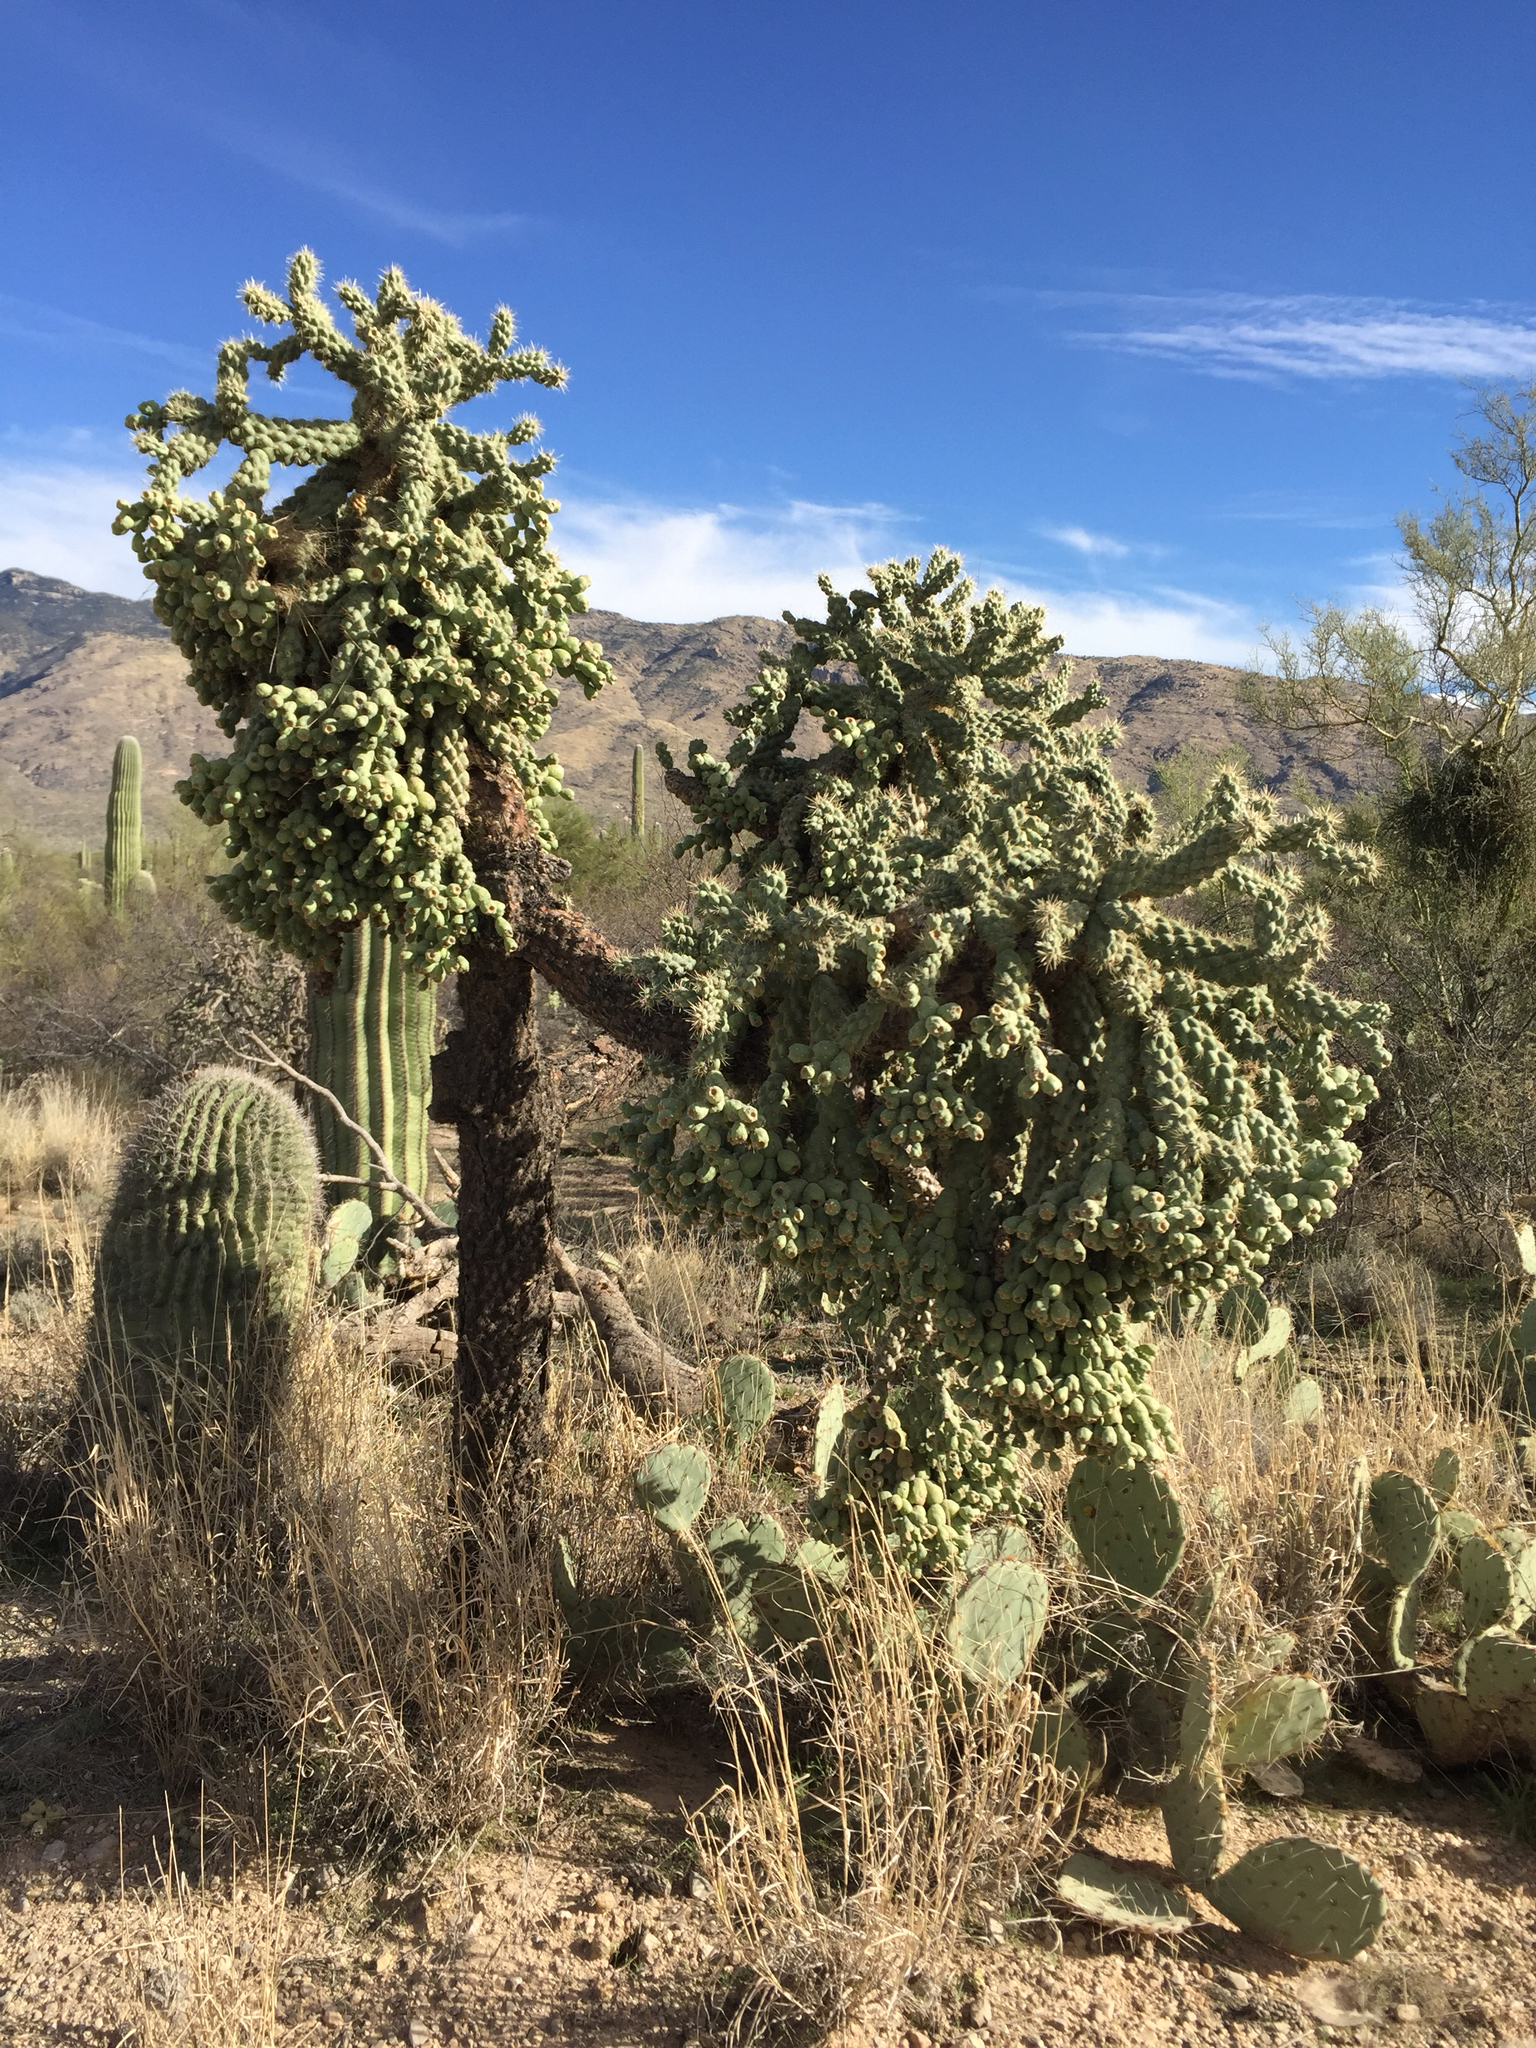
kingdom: Plantae
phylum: Tracheophyta
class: Magnoliopsida
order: Caryophyllales
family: Cactaceae
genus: Cylindropuntia
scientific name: Cylindropuntia fulgida
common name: Jumping cholla
